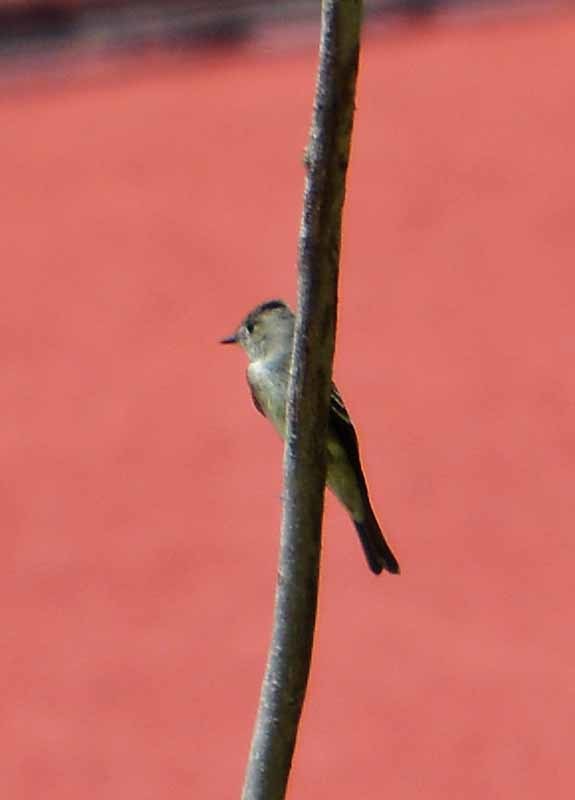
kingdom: Animalia
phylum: Chordata
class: Aves
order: Passeriformes
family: Tyrannidae
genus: Contopus
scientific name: Contopus sordidulus
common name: Western wood-pewee
